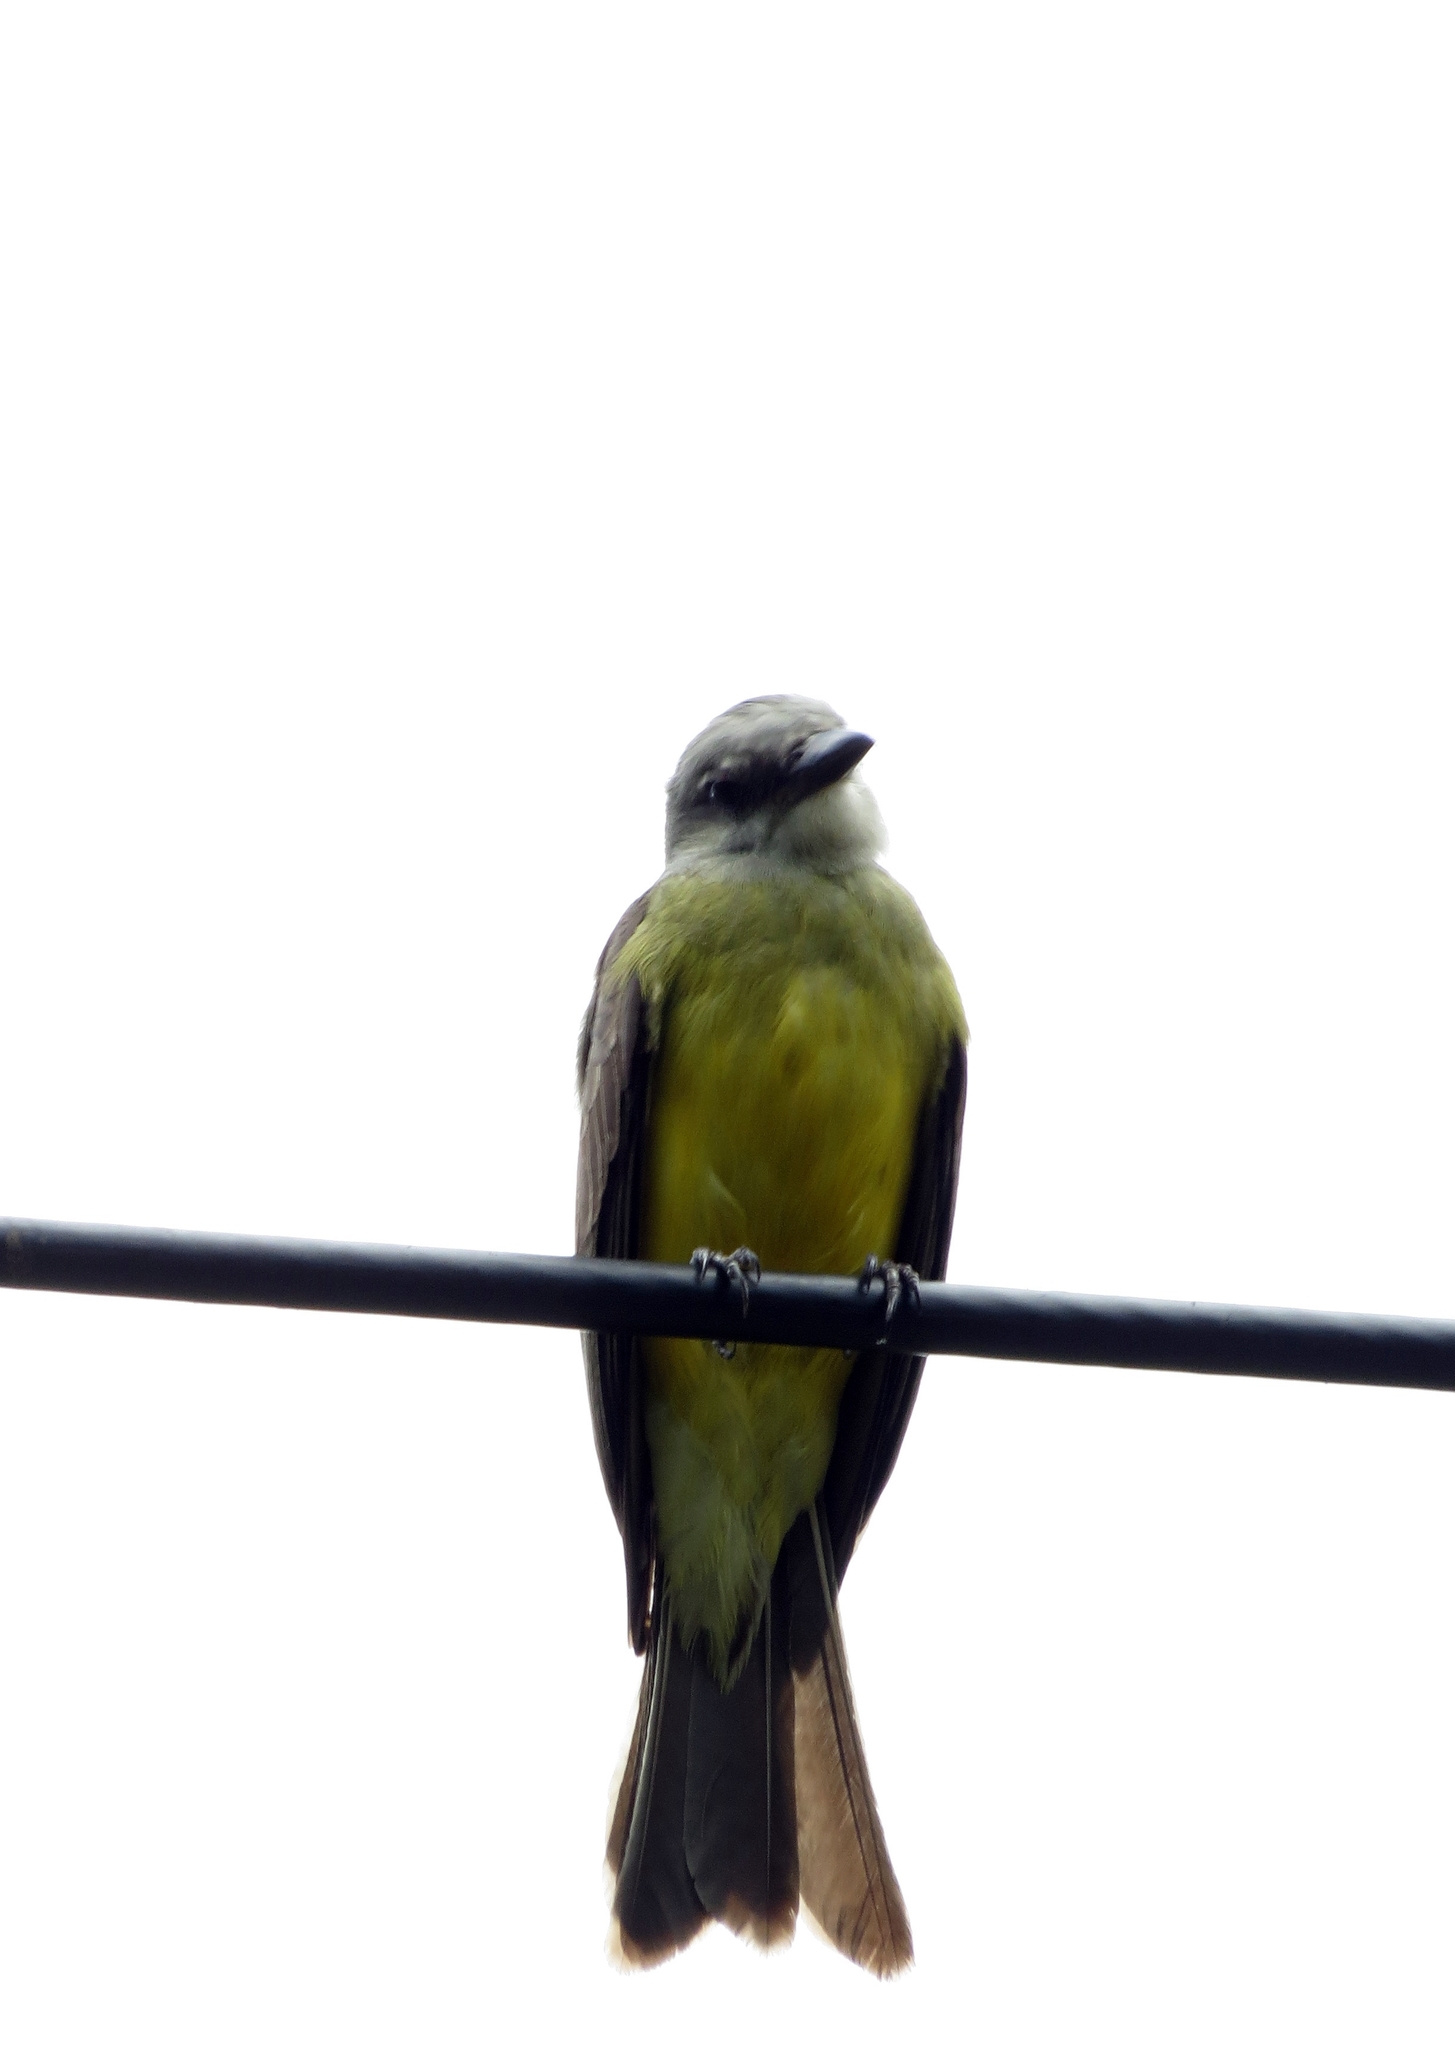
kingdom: Animalia
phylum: Chordata
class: Aves
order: Passeriformes
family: Tyrannidae
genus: Tyrannus
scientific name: Tyrannus melancholicus
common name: Tropical kingbird
